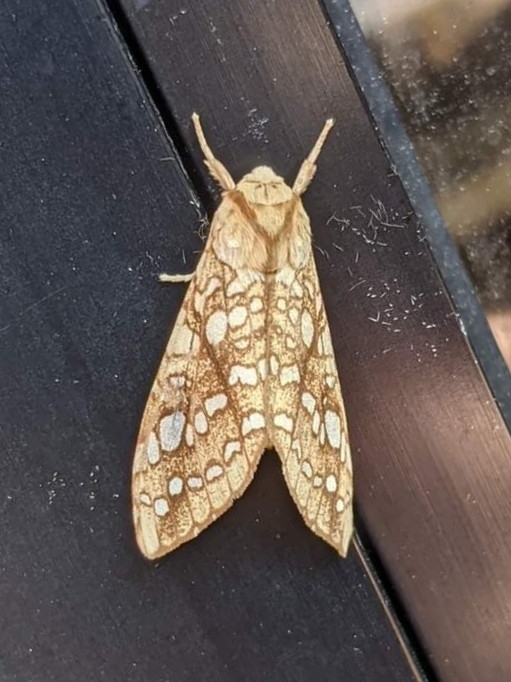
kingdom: Animalia
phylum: Arthropoda
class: Insecta
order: Lepidoptera
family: Erebidae
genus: Lophocampa
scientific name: Lophocampa caryae
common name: Hickory tussock moth
